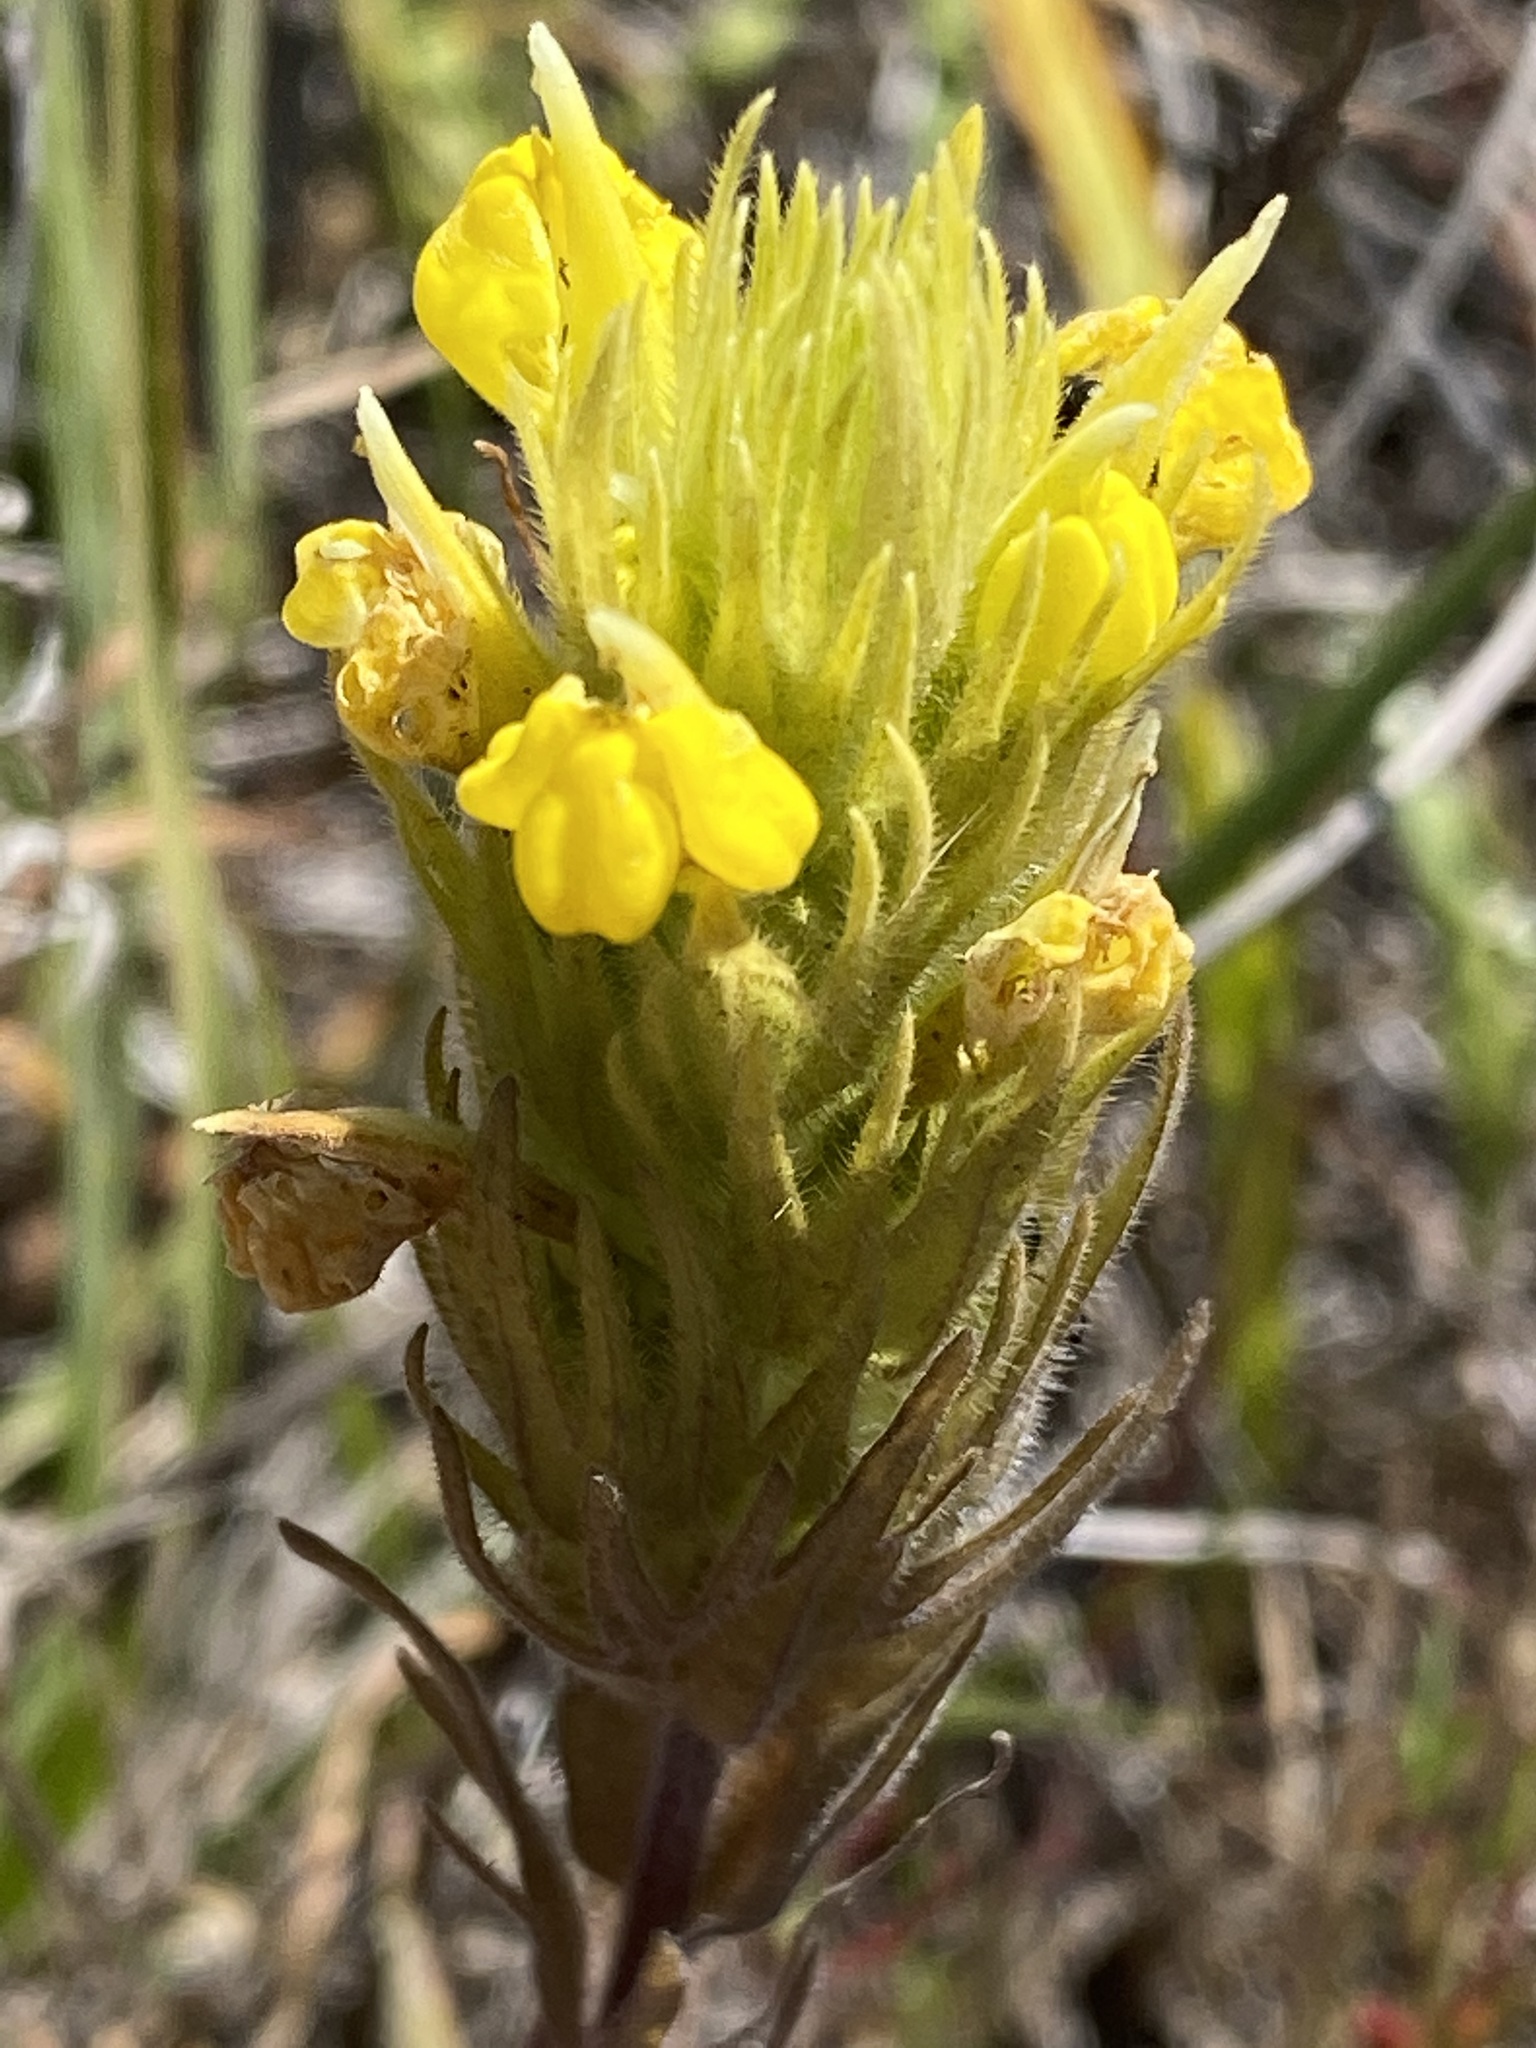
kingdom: Plantae
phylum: Tracheophyta
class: Magnoliopsida
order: Lamiales
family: Orobanchaceae
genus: Castilleja
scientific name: Castilleja rubicundula
